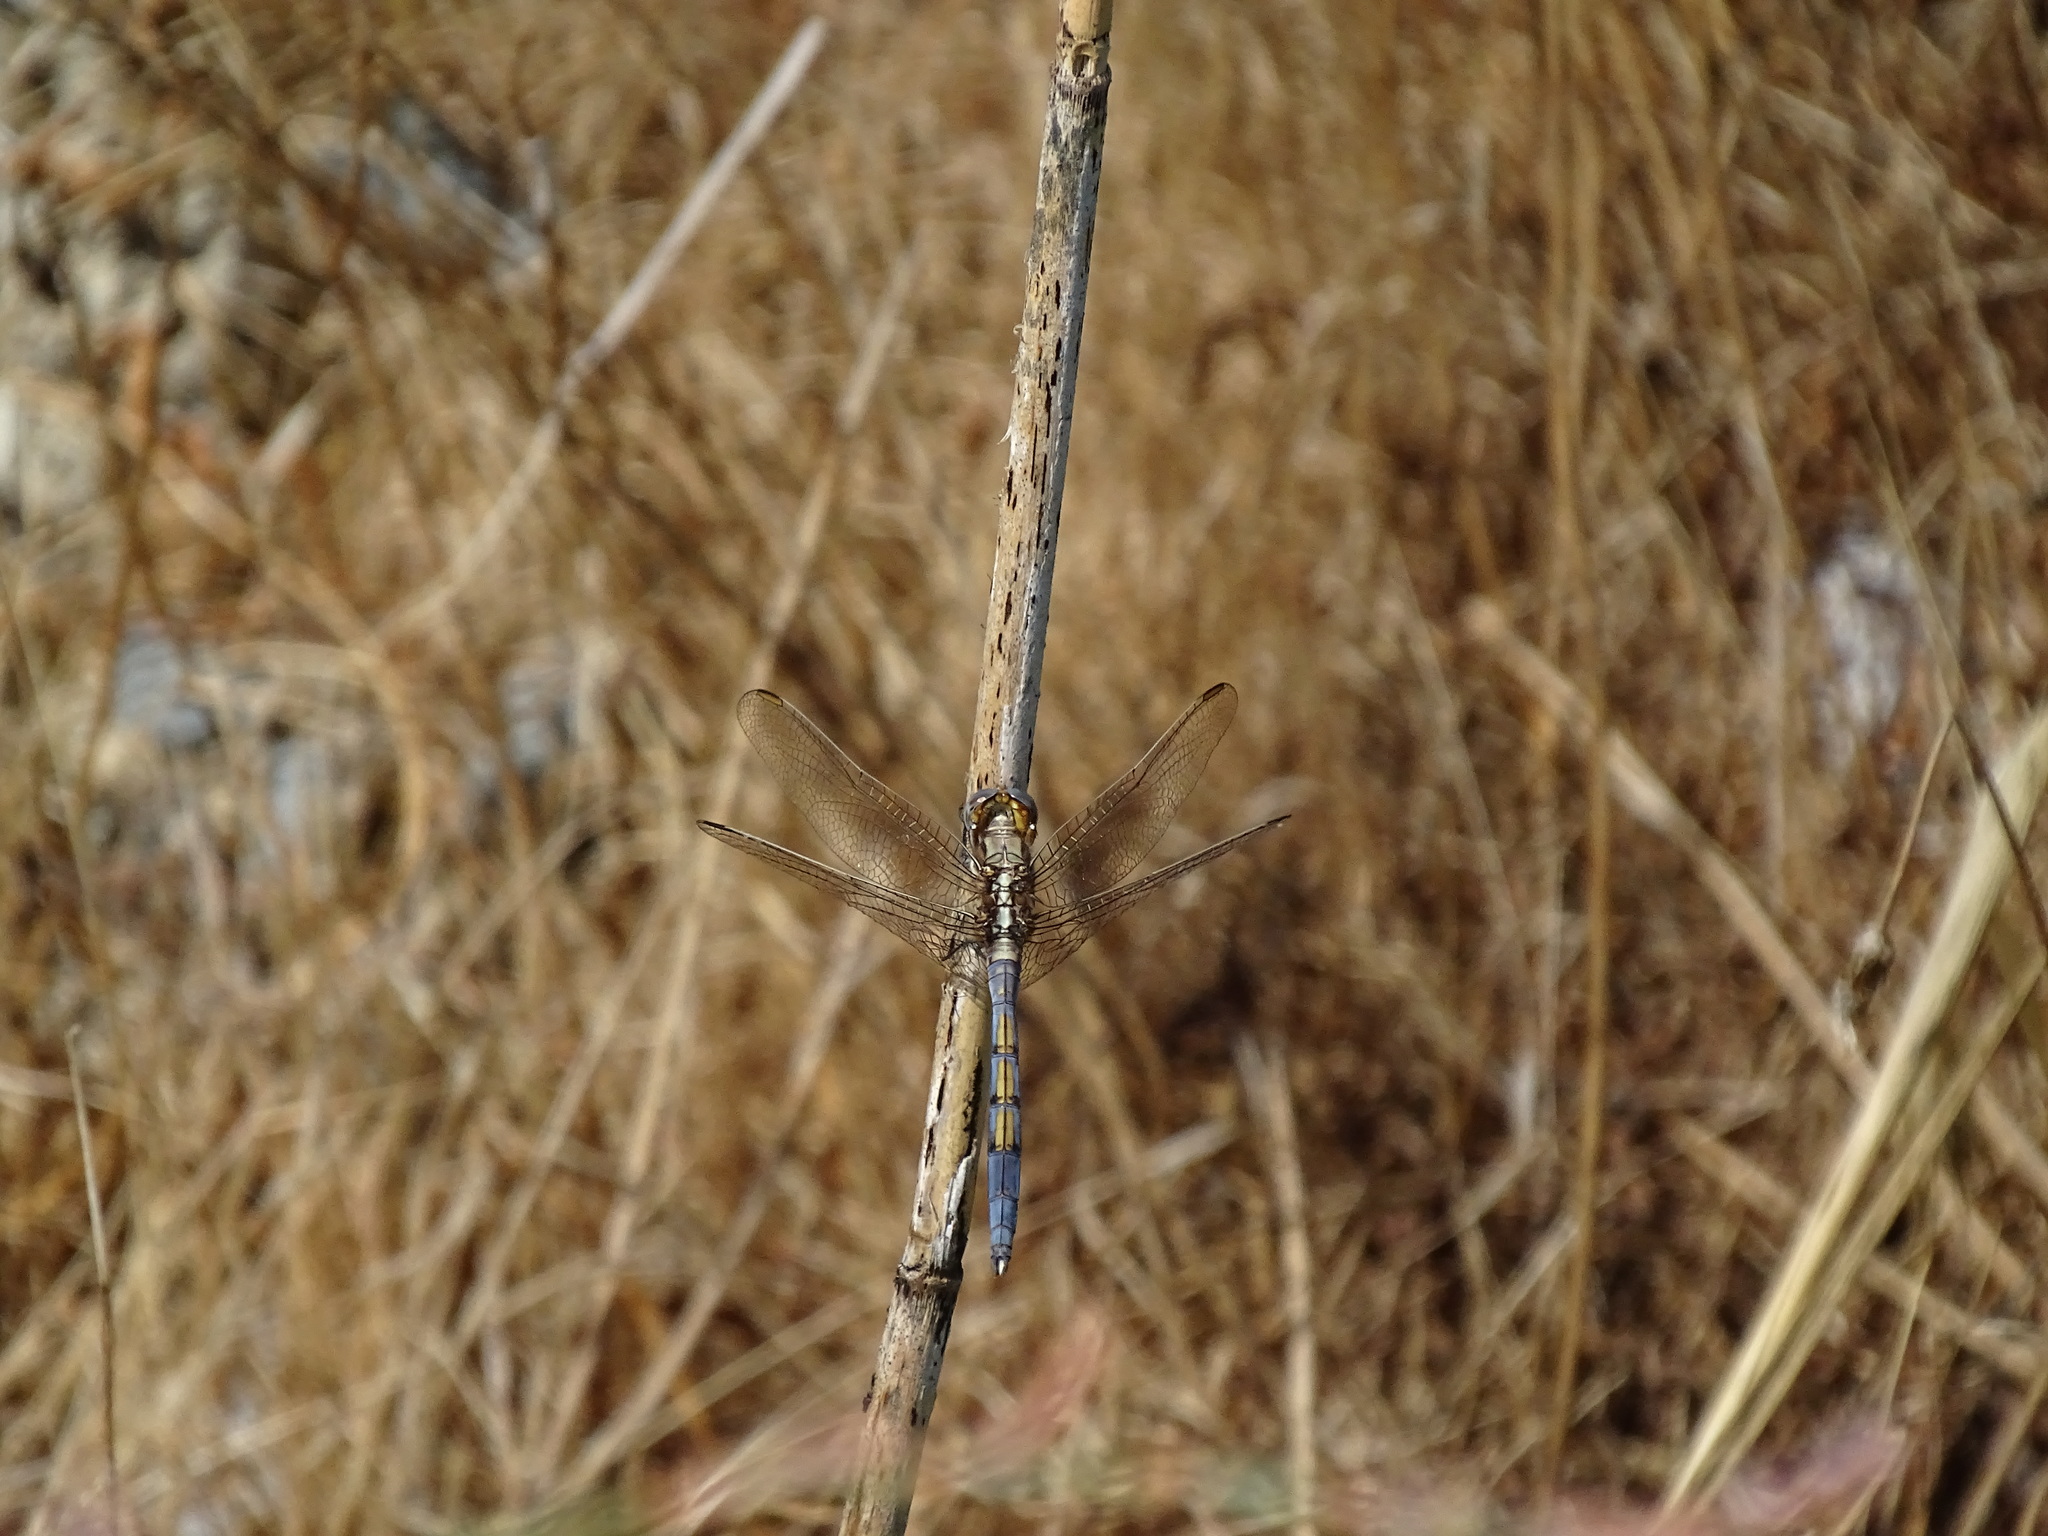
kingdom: Animalia
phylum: Arthropoda
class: Insecta
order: Odonata
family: Libellulidae
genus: Orthetrum
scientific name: Orthetrum chrysostigma
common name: Epaulet skimmer
